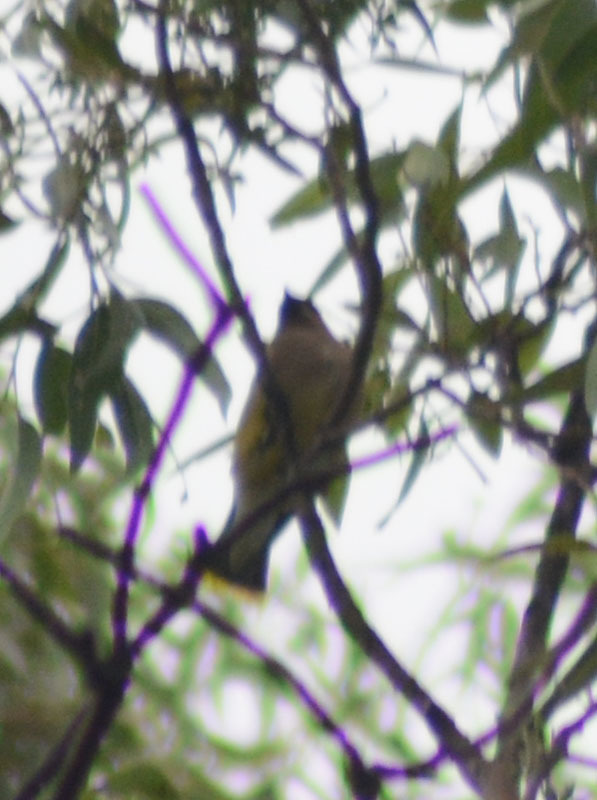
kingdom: Animalia
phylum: Chordata
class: Aves
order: Passeriformes
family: Bombycillidae
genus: Bombycilla
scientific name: Bombycilla cedrorum
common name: Cedar waxwing
